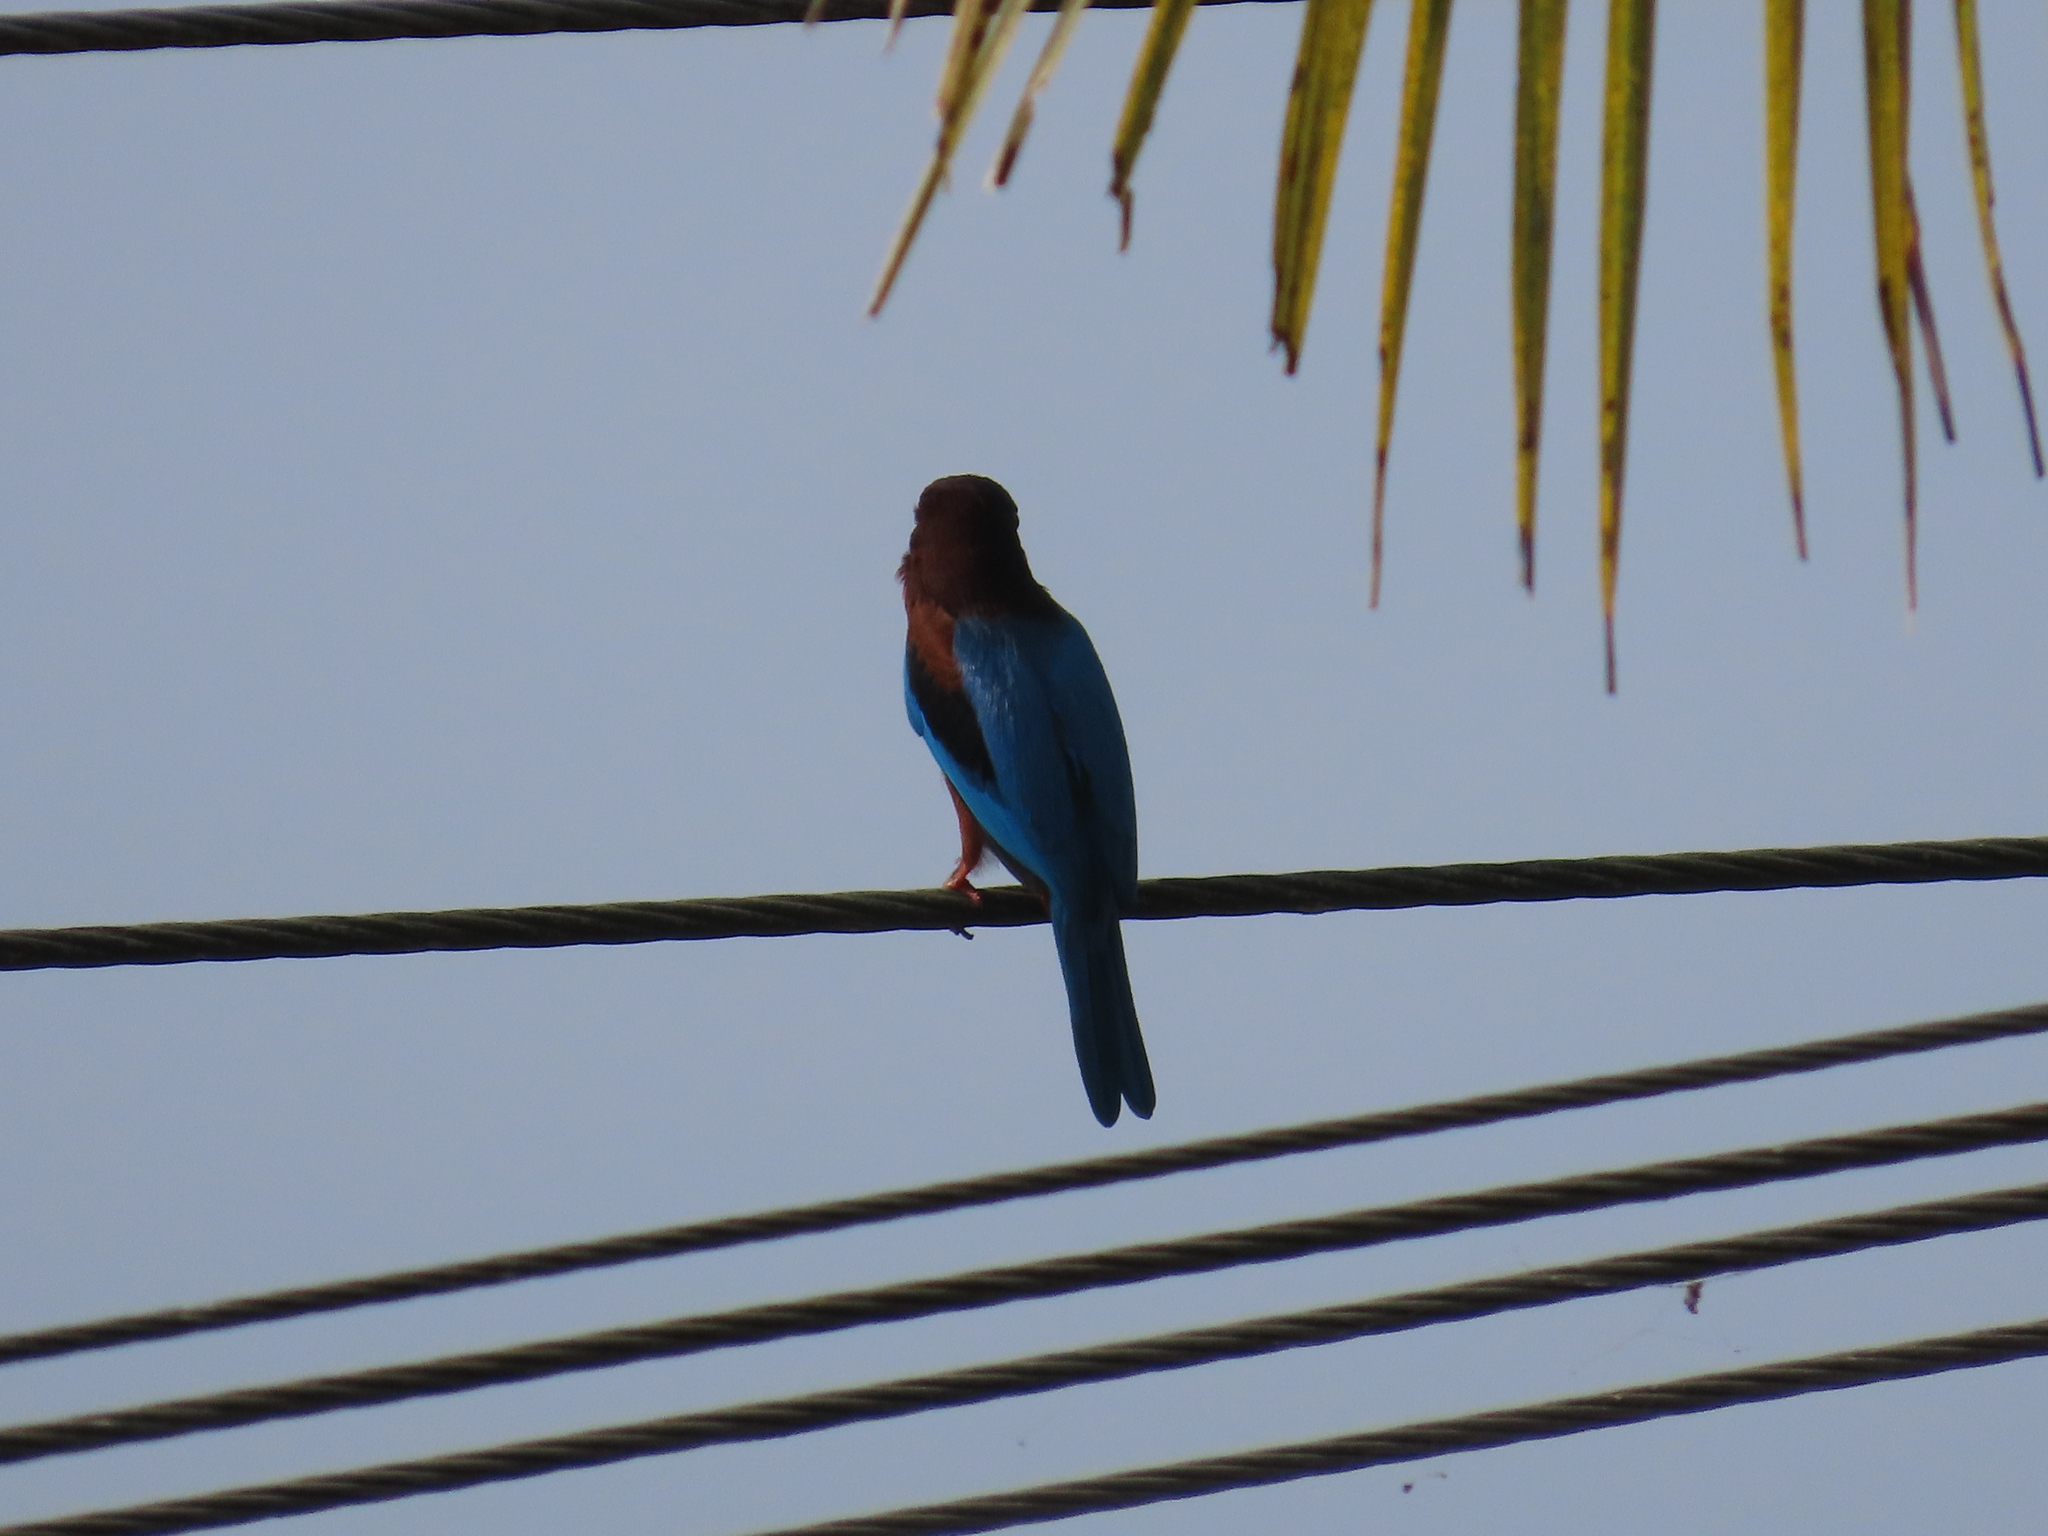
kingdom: Animalia
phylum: Chordata
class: Aves
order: Coraciiformes
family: Alcedinidae
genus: Halcyon
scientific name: Halcyon smyrnensis
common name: White-throated kingfisher
